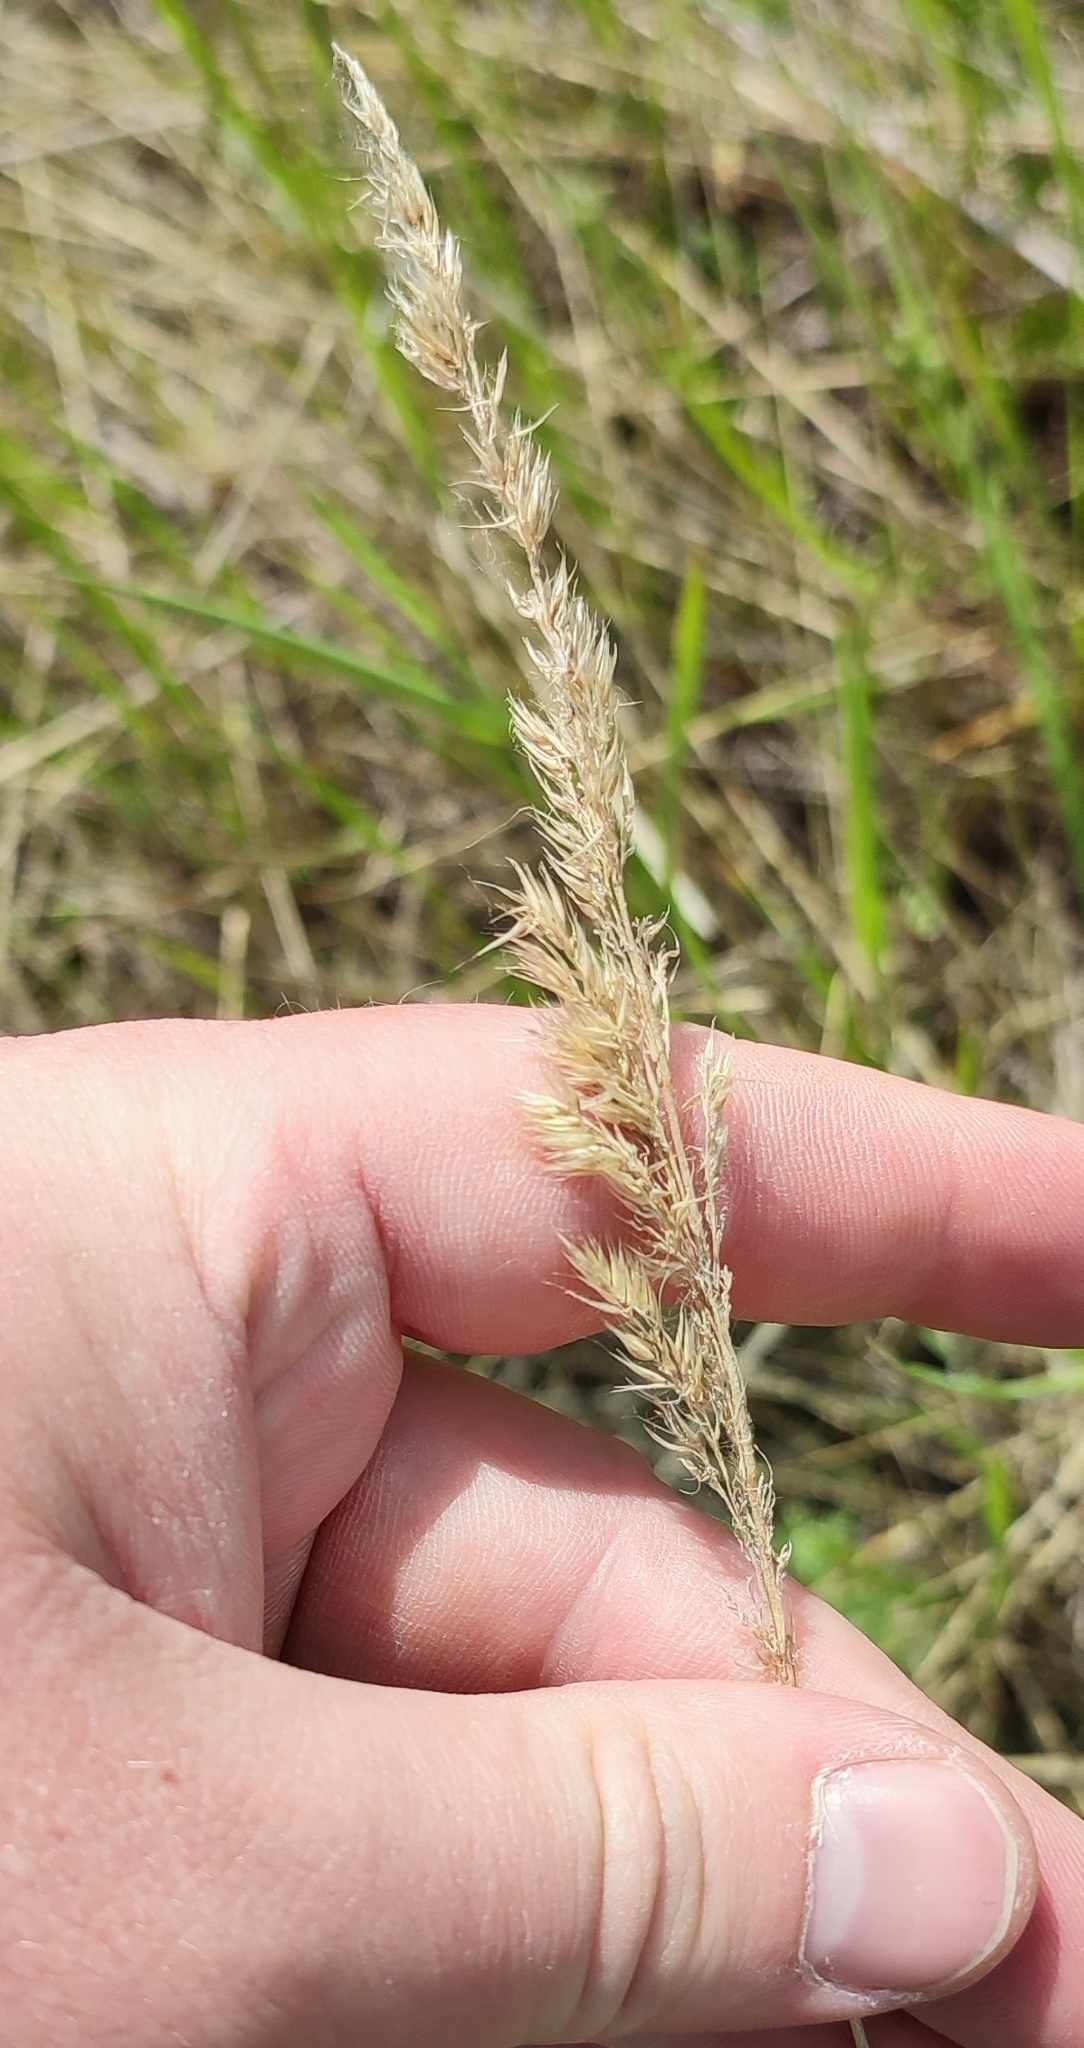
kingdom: Plantae
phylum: Tracheophyta
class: Liliopsida
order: Poales
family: Poaceae
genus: Calamagrostis
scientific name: Calamagrostis epigejos
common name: Wood small-reed
